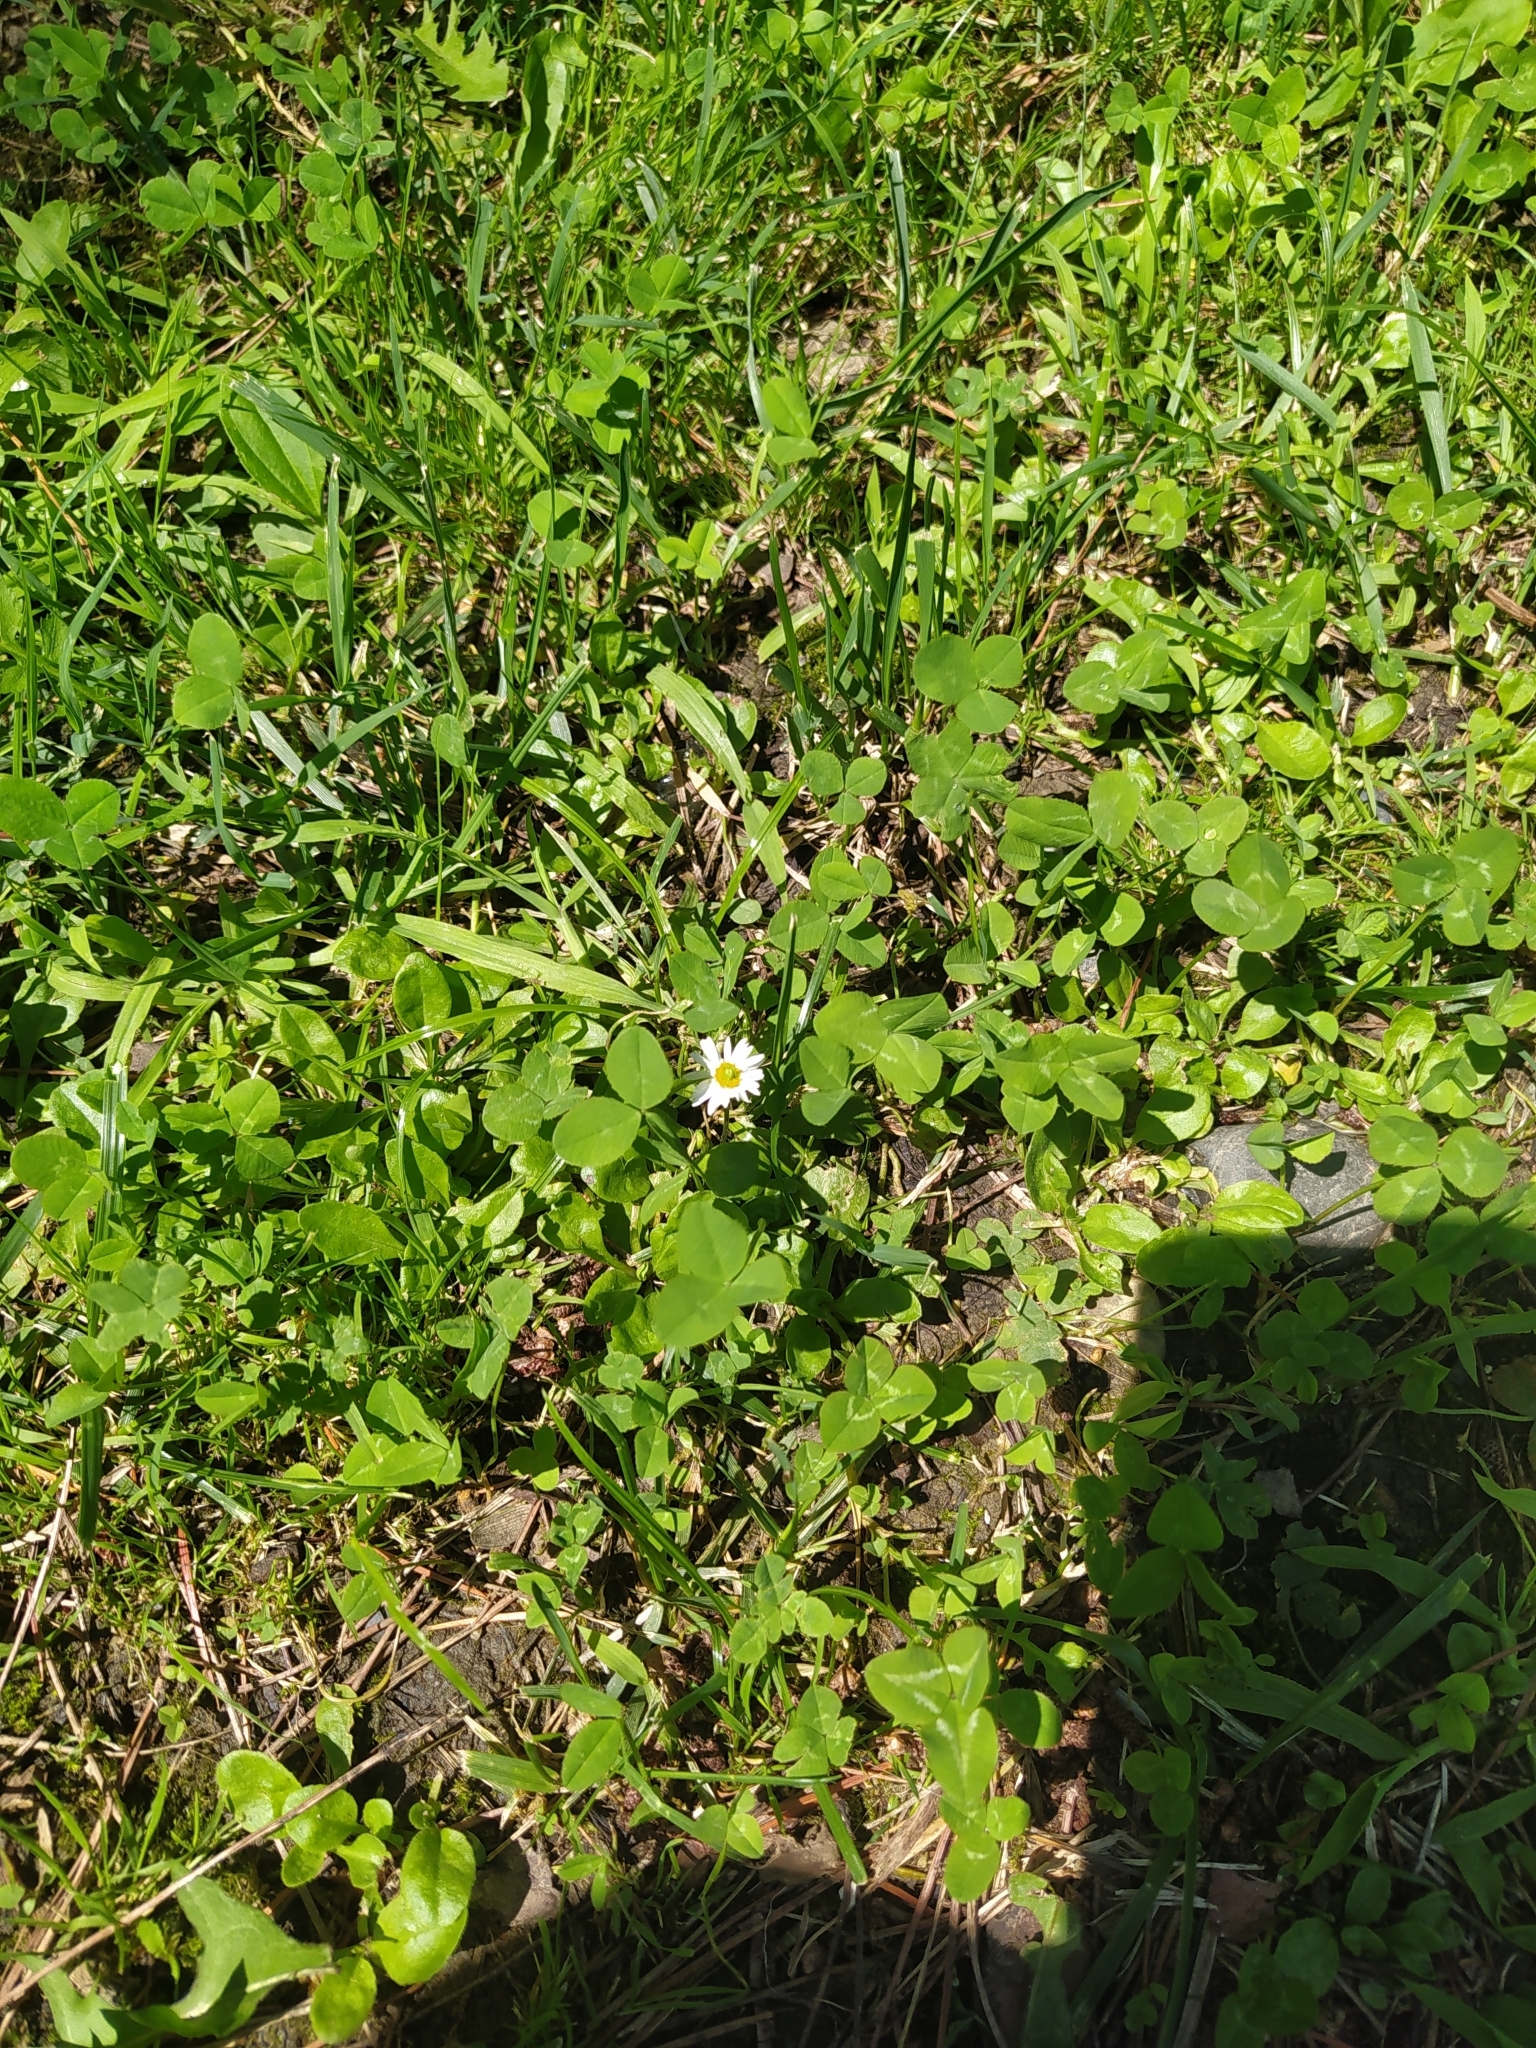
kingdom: Plantae
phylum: Tracheophyta
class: Magnoliopsida
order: Asterales
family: Asteraceae
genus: Bellis
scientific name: Bellis perennis
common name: Lawndaisy
